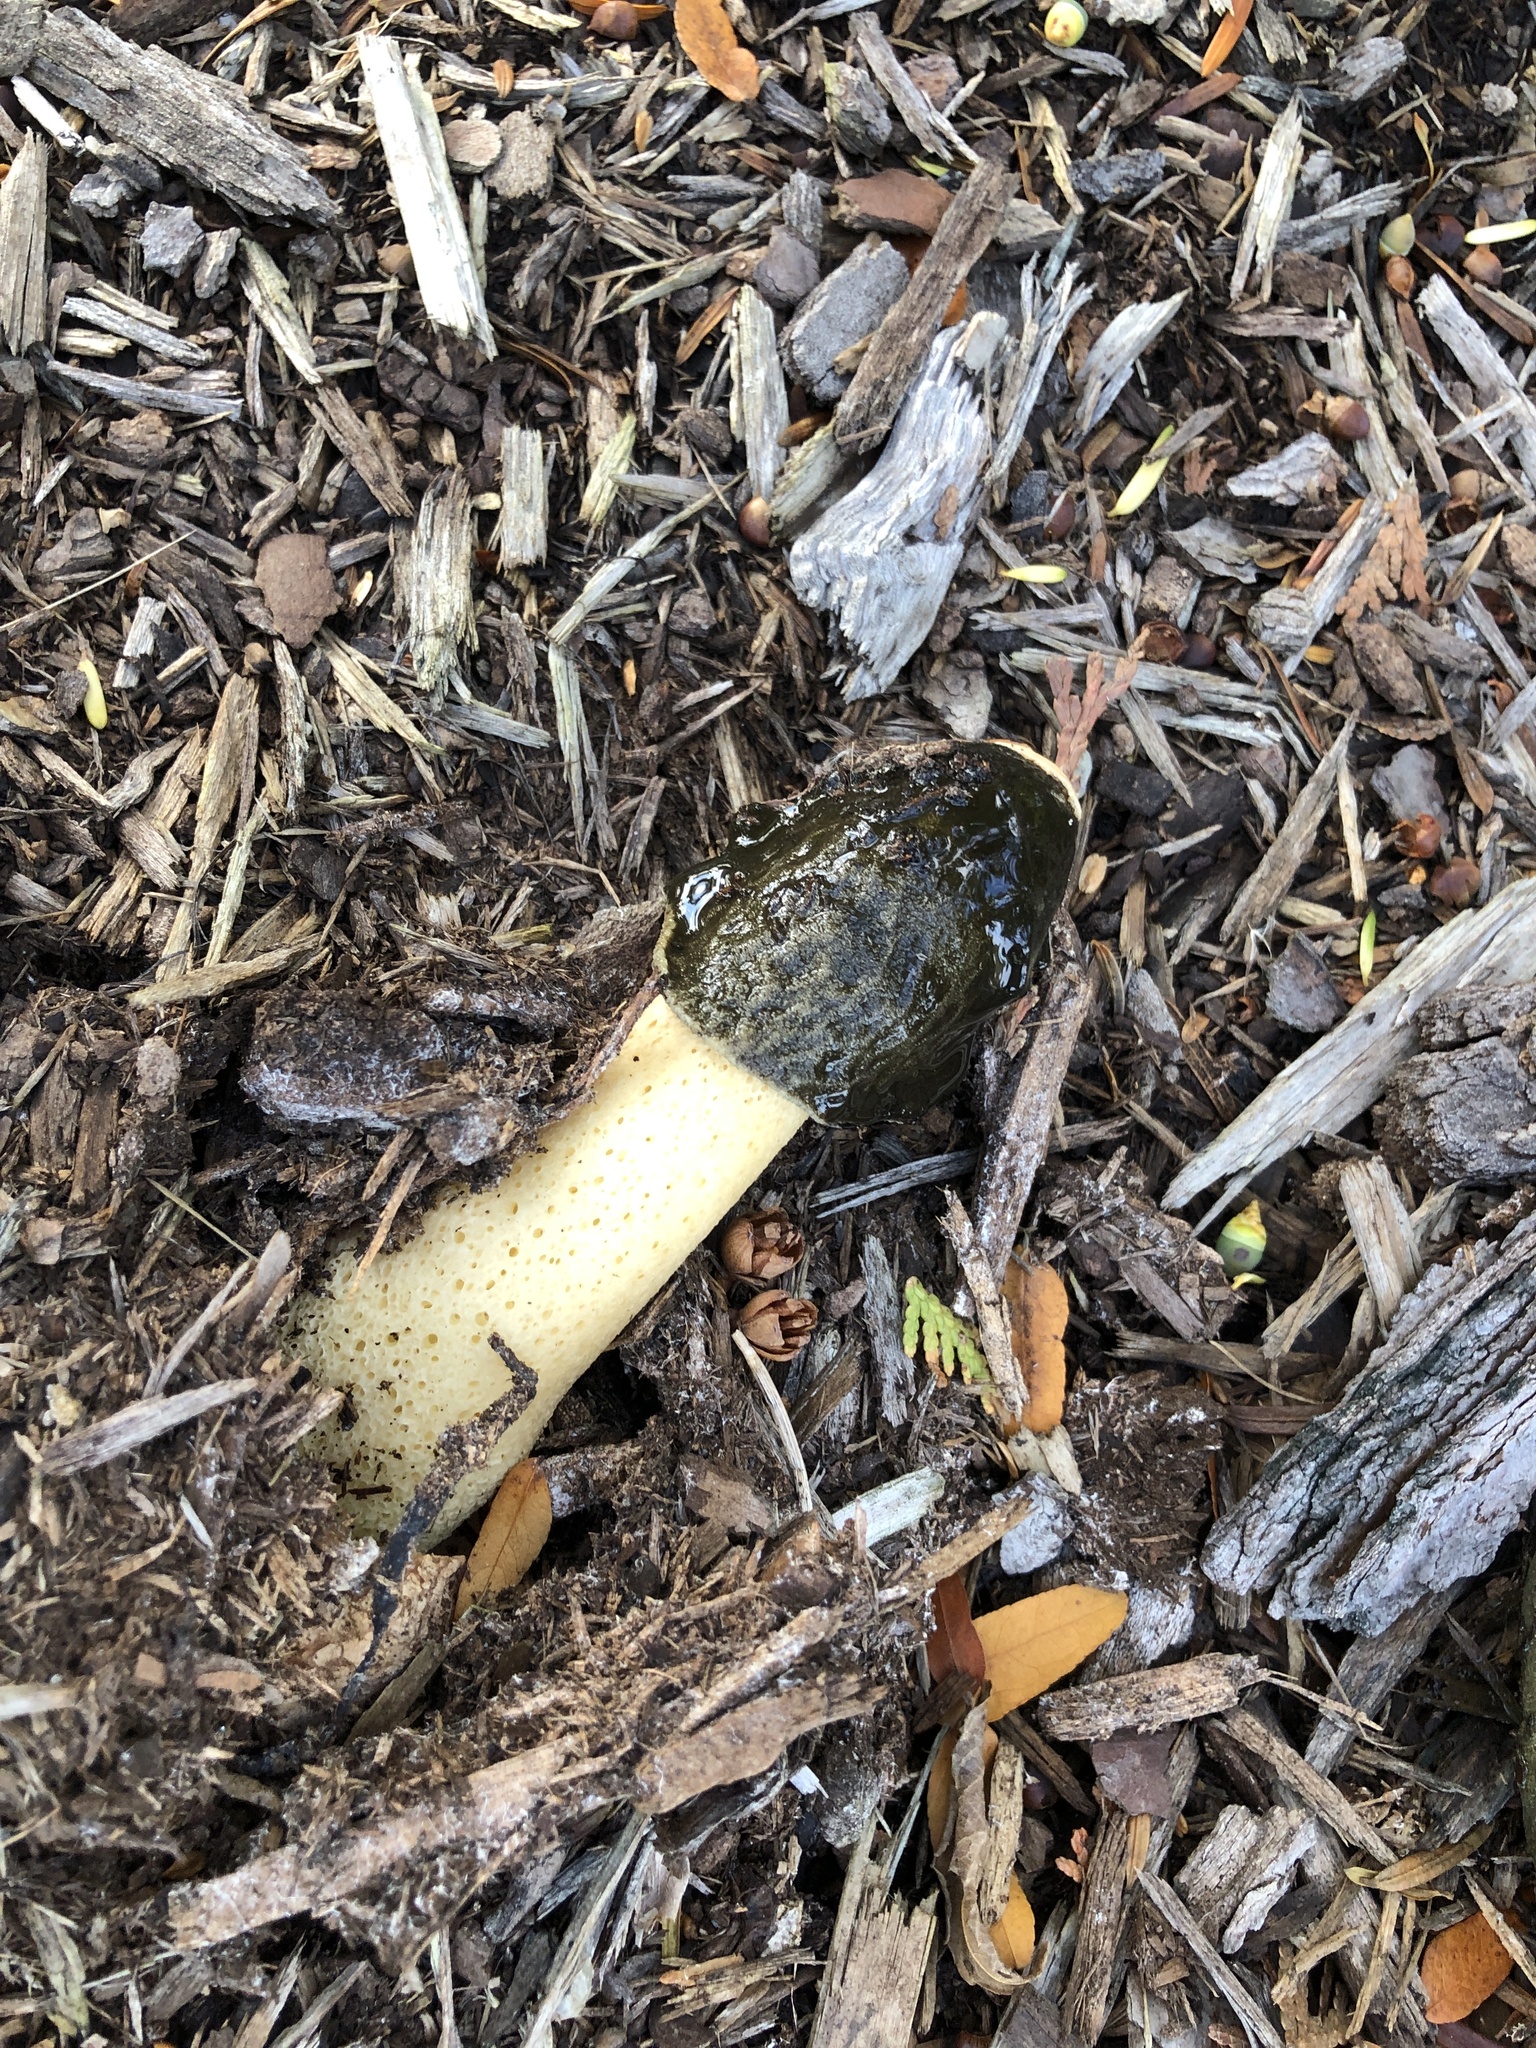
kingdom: Fungi
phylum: Basidiomycota
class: Agaricomycetes
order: Phallales
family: Phallaceae
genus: Phallus
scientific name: Phallus ravenelii
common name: Ravenel's stinkhorn
